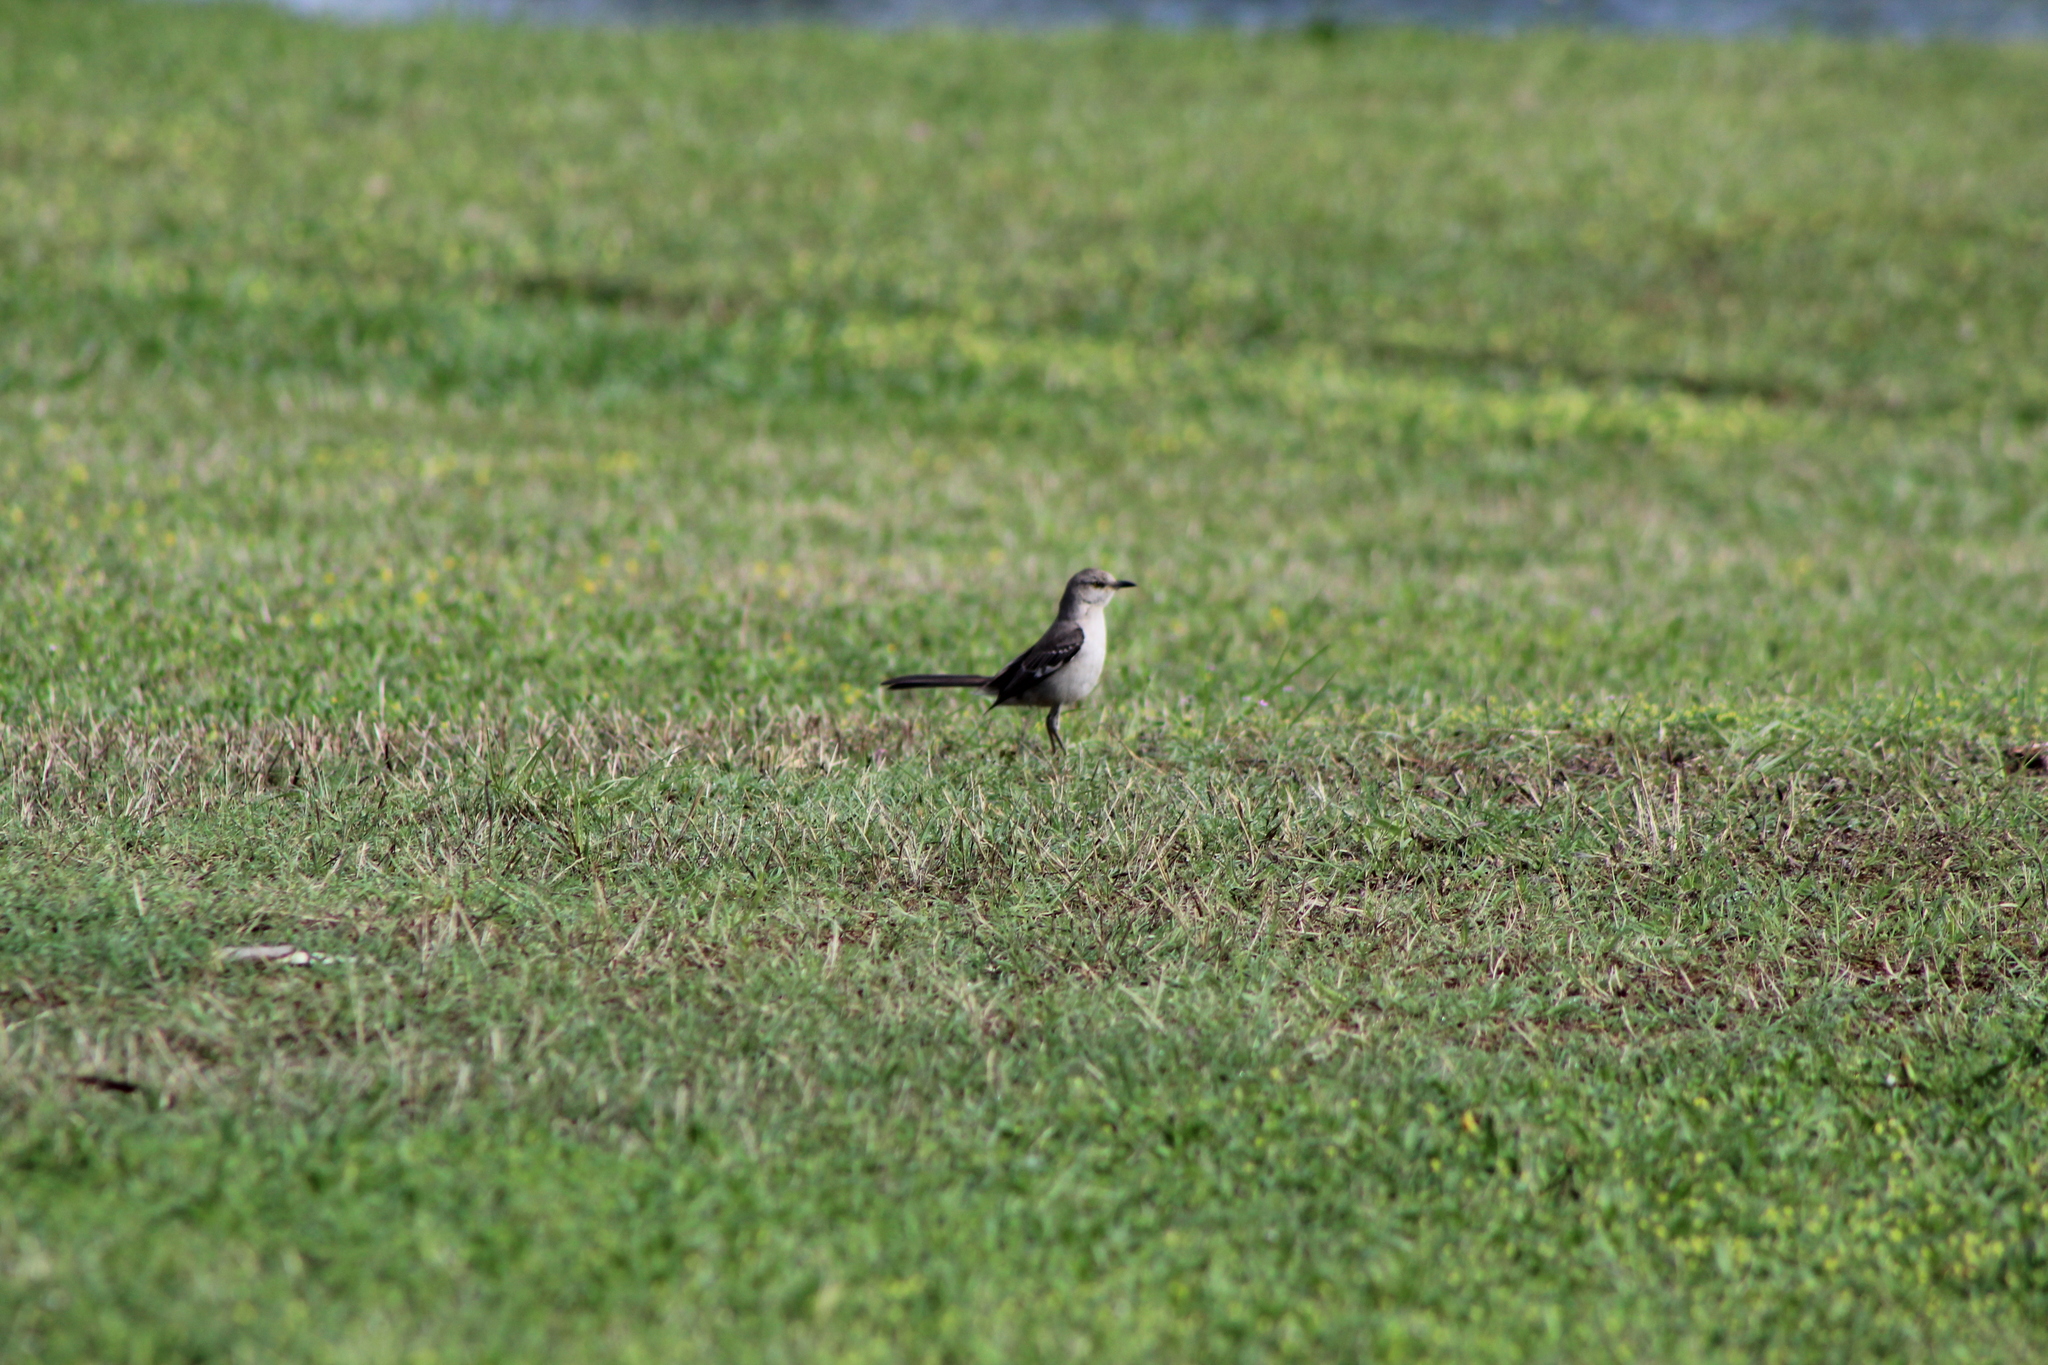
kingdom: Animalia
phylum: Chordata
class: Aves
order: Passeriformes
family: Mimidae
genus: Mimus
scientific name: Mimus polyglottos
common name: Northern mockingbird
